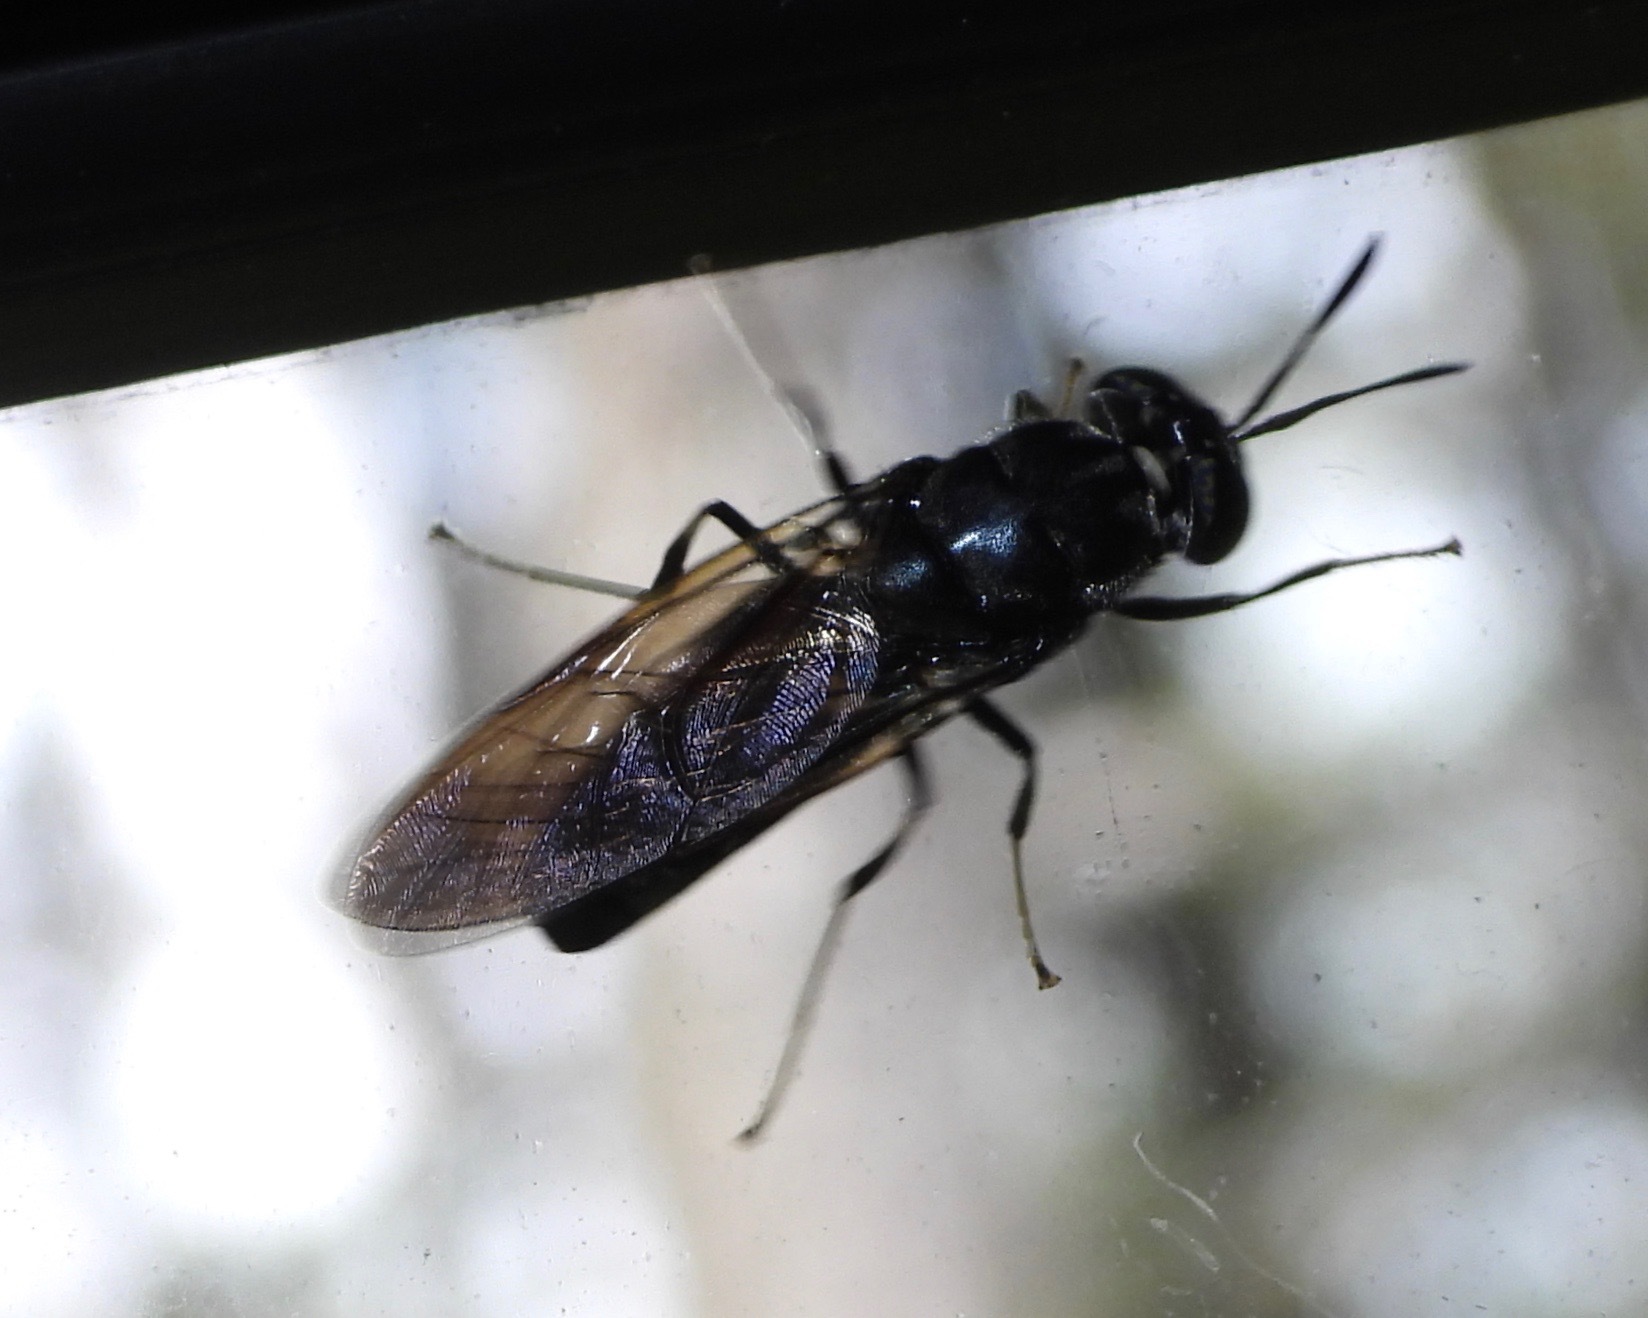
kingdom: Animalia
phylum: Arthropoda
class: Insecta
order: Diptera
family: Stratiomyidae
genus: Hermetia
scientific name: Hermetia illucens
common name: Black soldier fly
